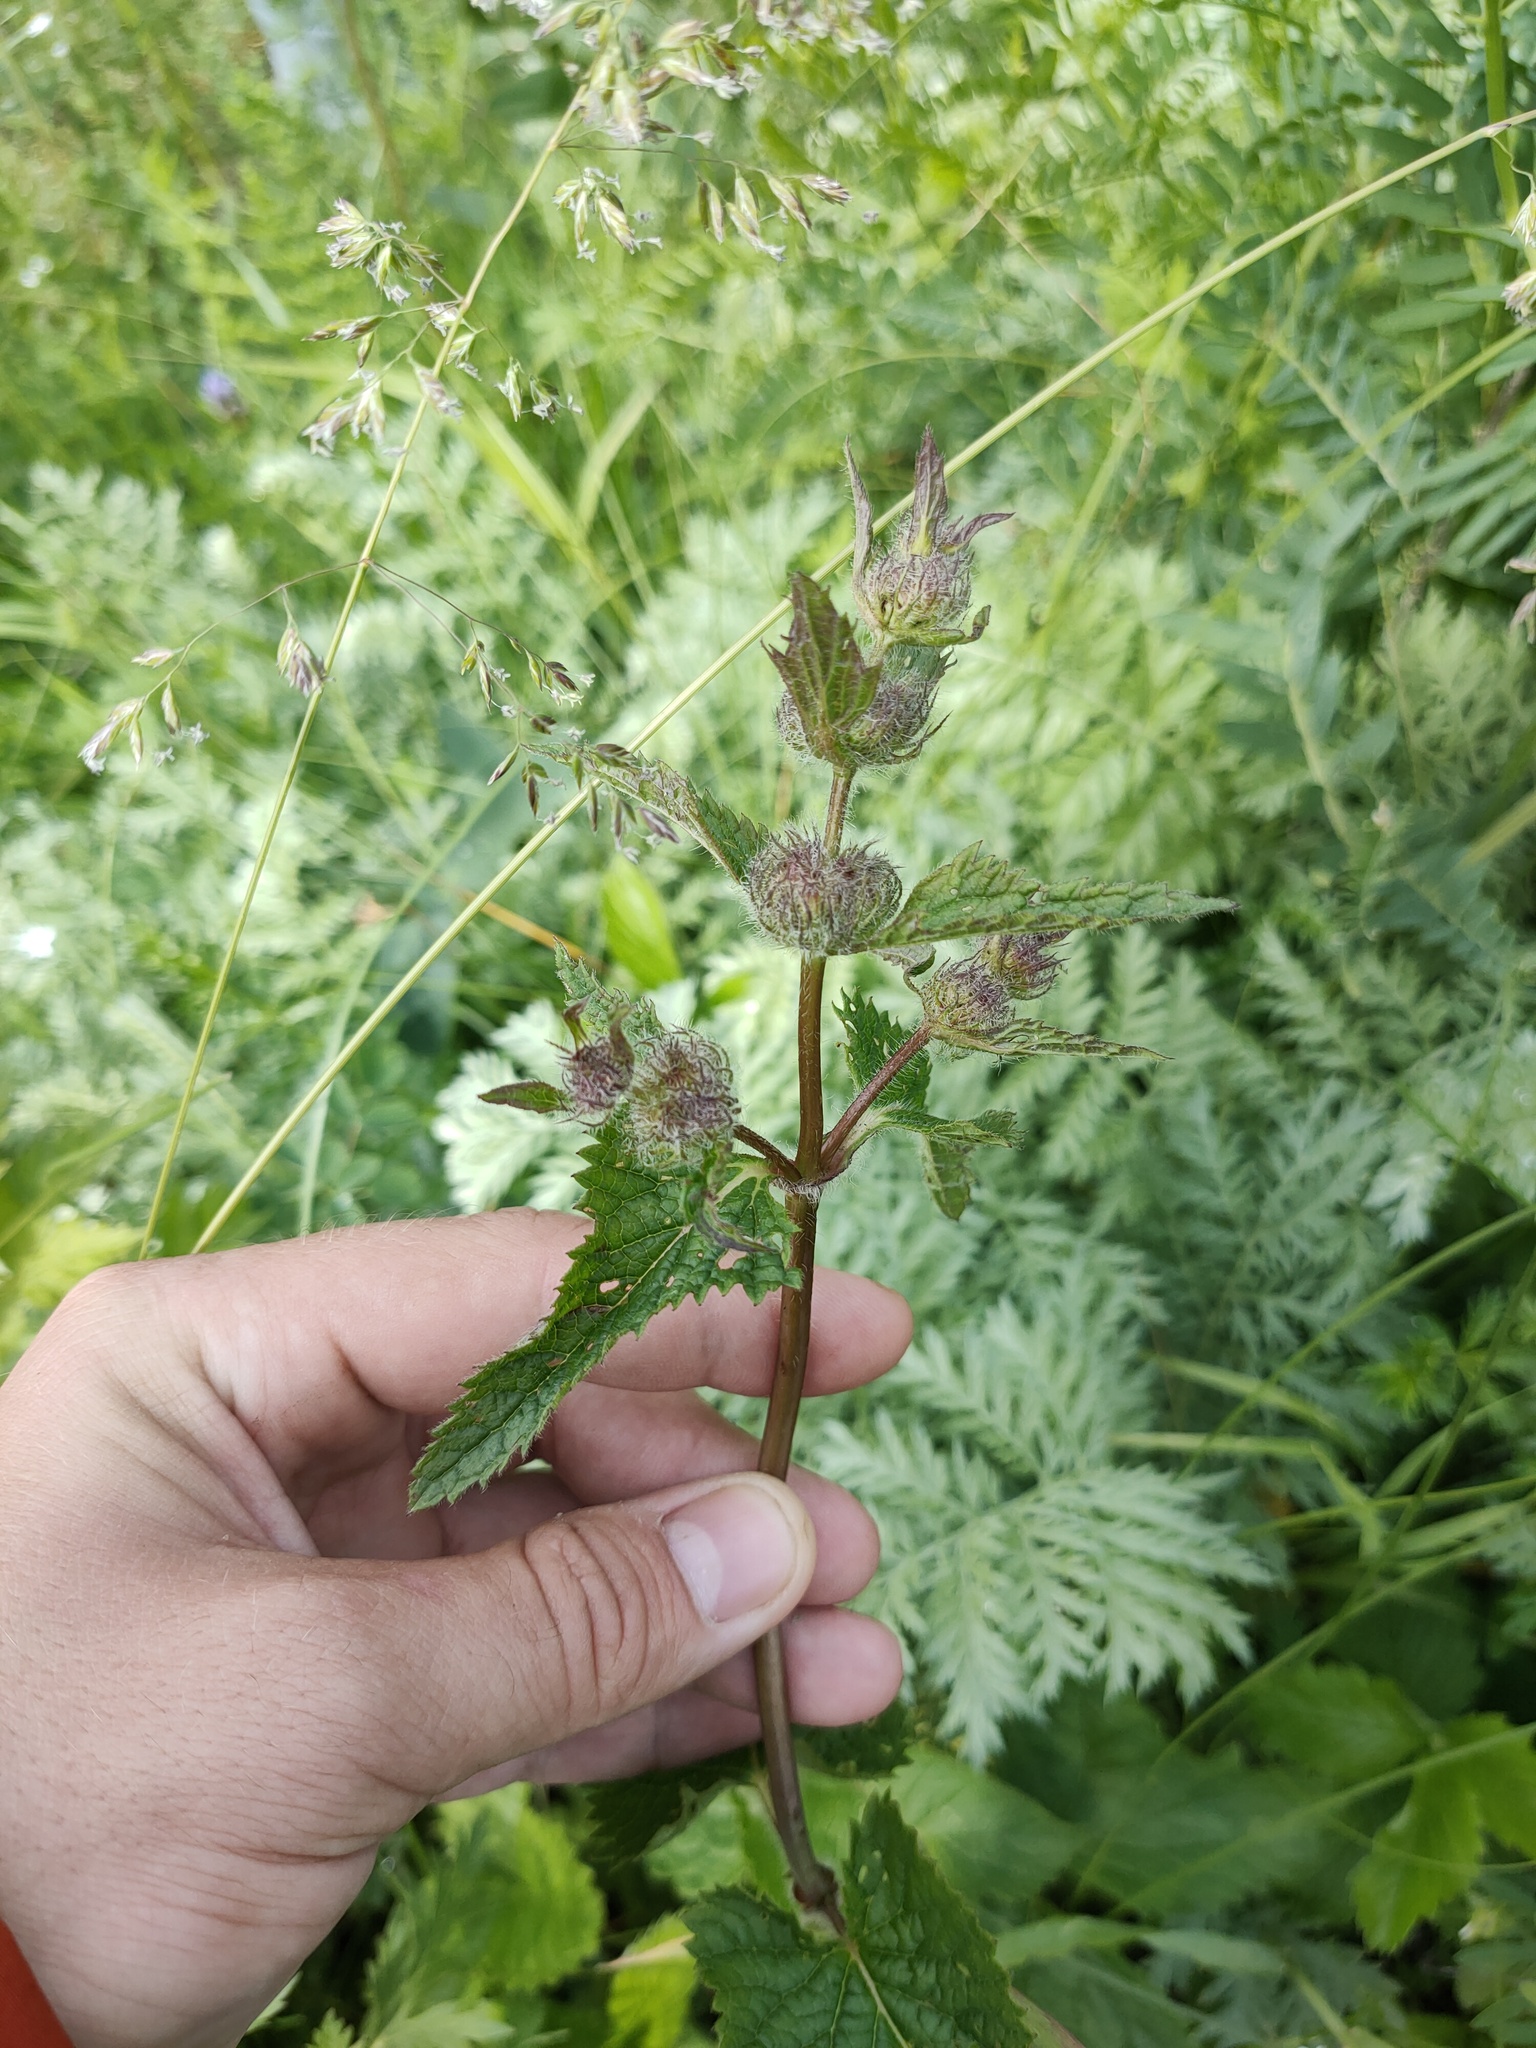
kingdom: Plantae
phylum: Tracheophyta
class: Magnoliopsida
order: Lamiales
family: Lamiaceae
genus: Phlomoides
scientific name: Phlomoides tuberosa
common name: Tuberous jerusalem sage
